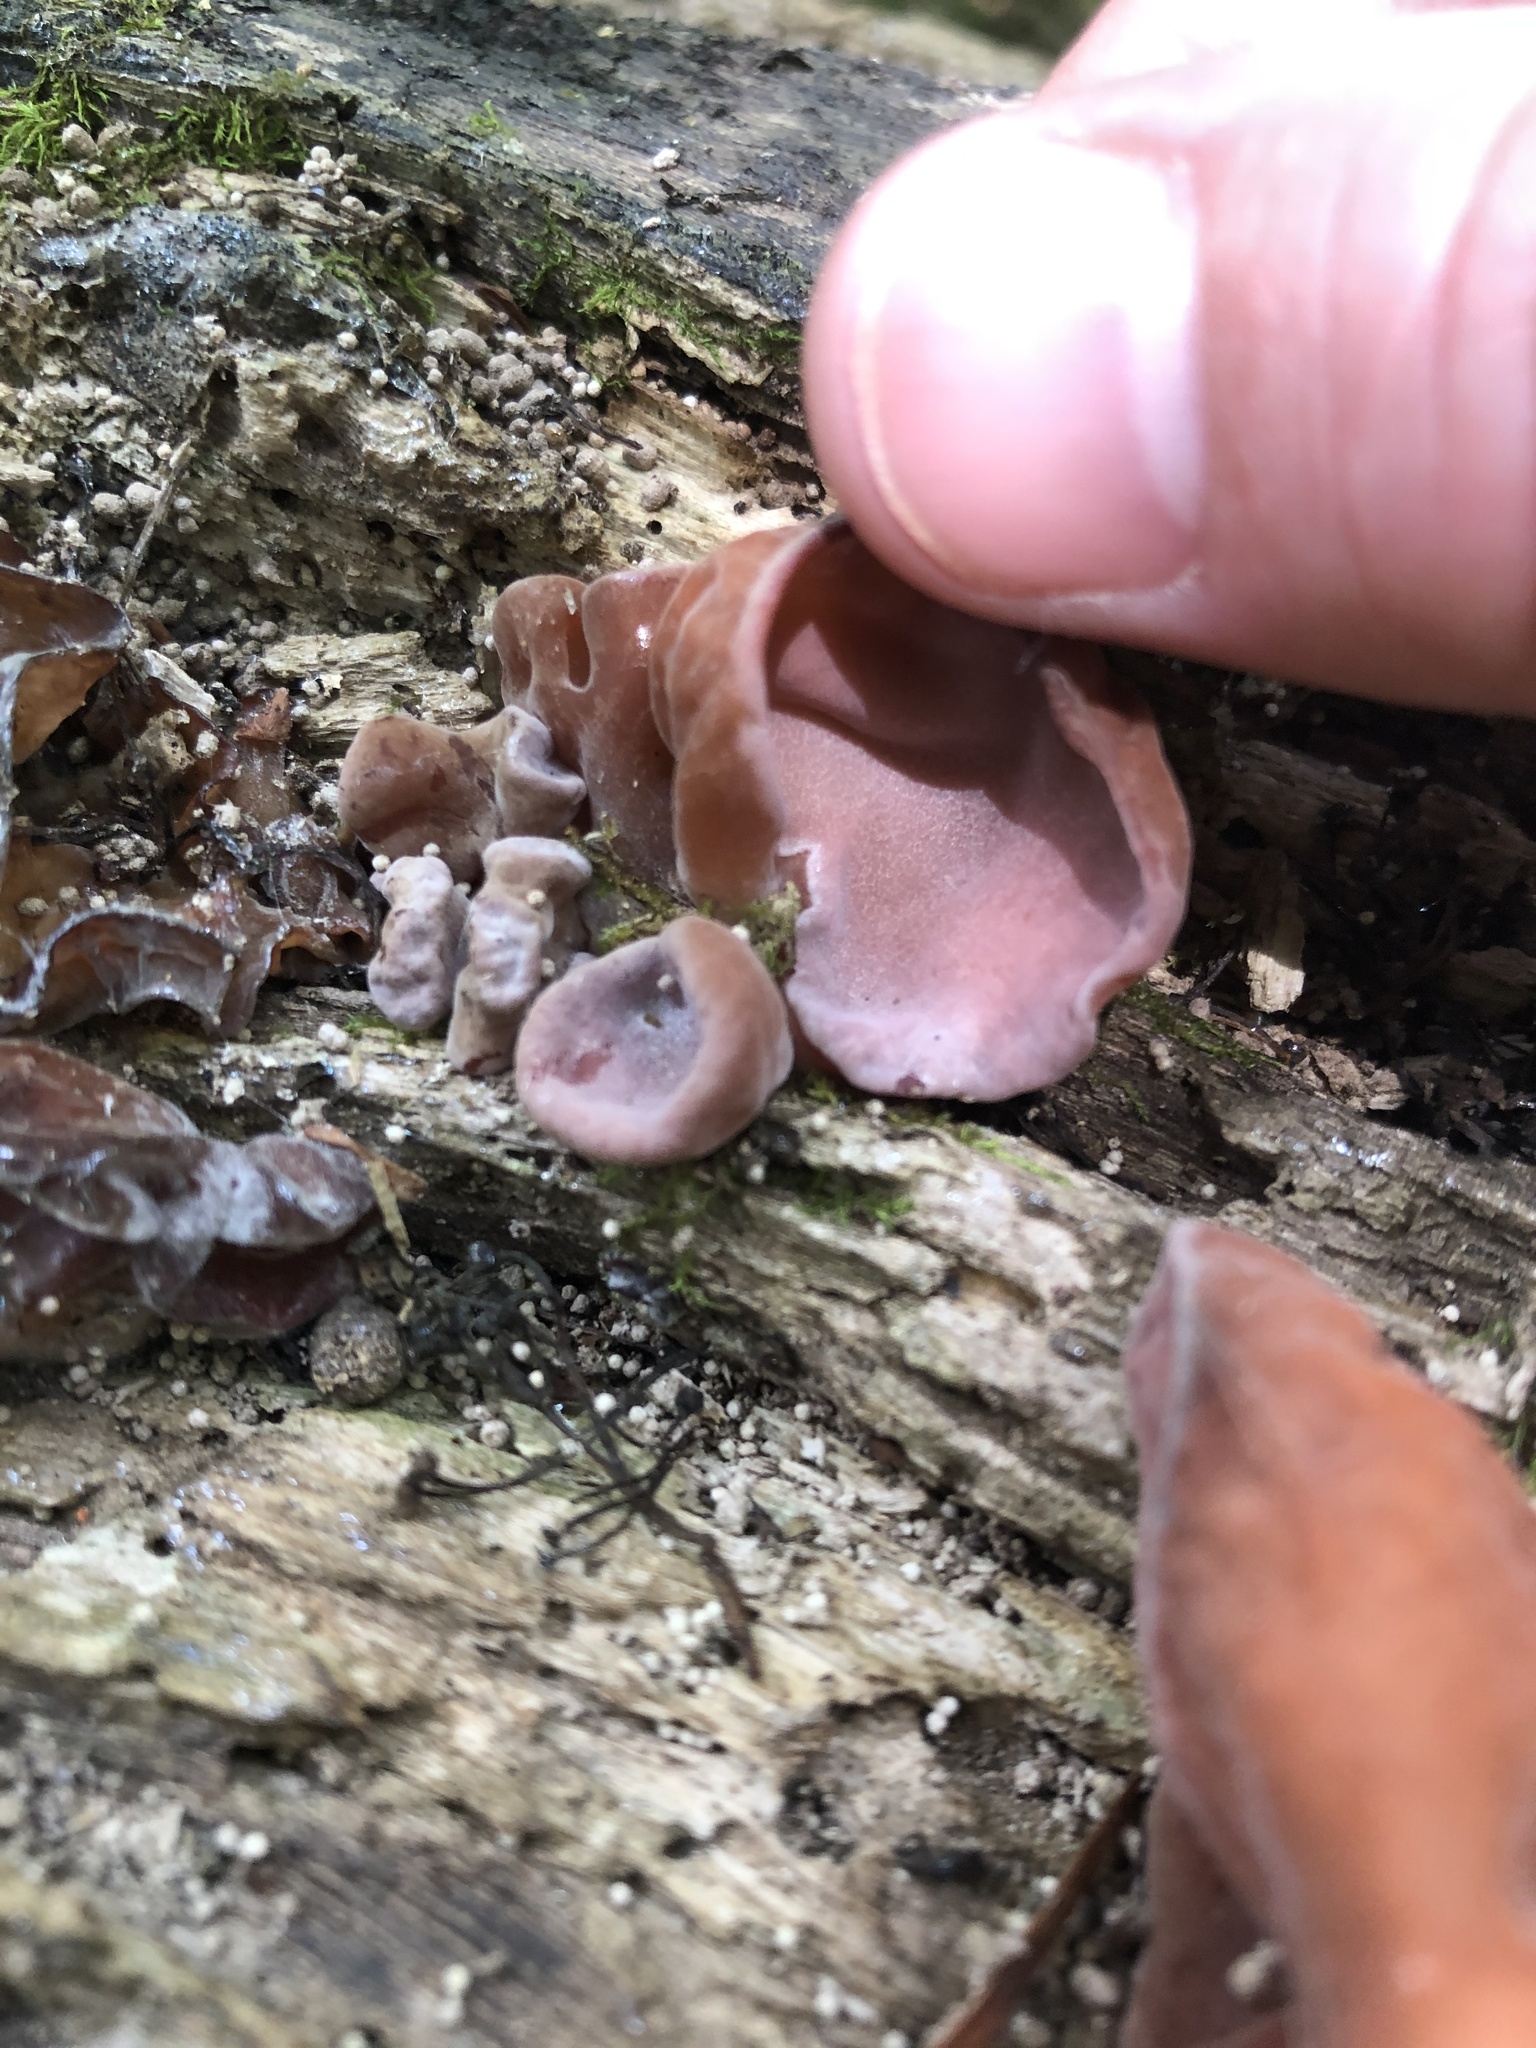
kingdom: Fungi
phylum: Basidiomycota
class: Agaricomycetes
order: Auriculariales
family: Auriculariaceae
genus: Auricularia
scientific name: Auricularia cornea
